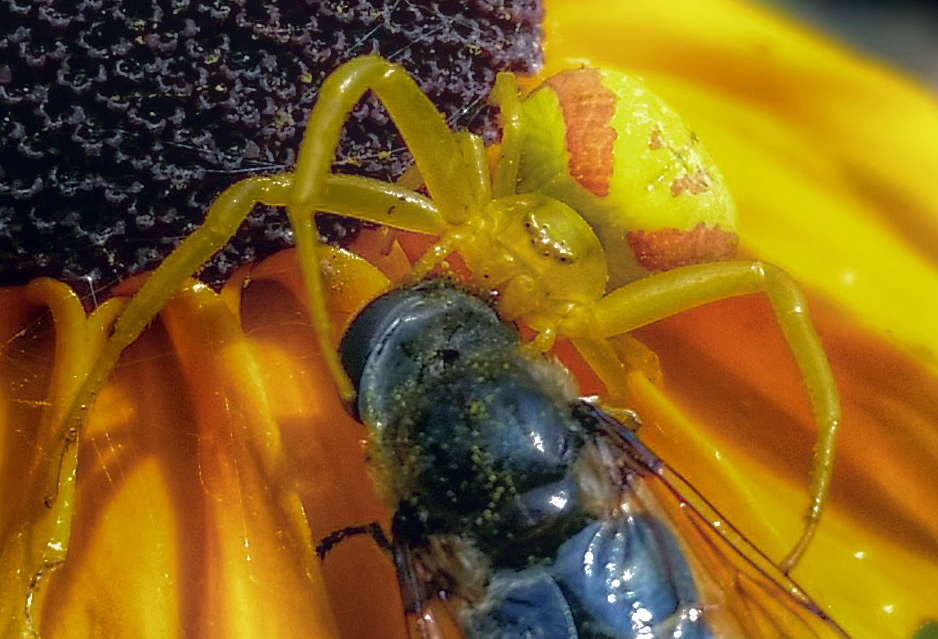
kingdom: Animalia
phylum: Arthropoda
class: Arachnida
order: Araneae
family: Thomisidae
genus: Misumena
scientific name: Misumena vatia
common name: Goldenrod crab spider
